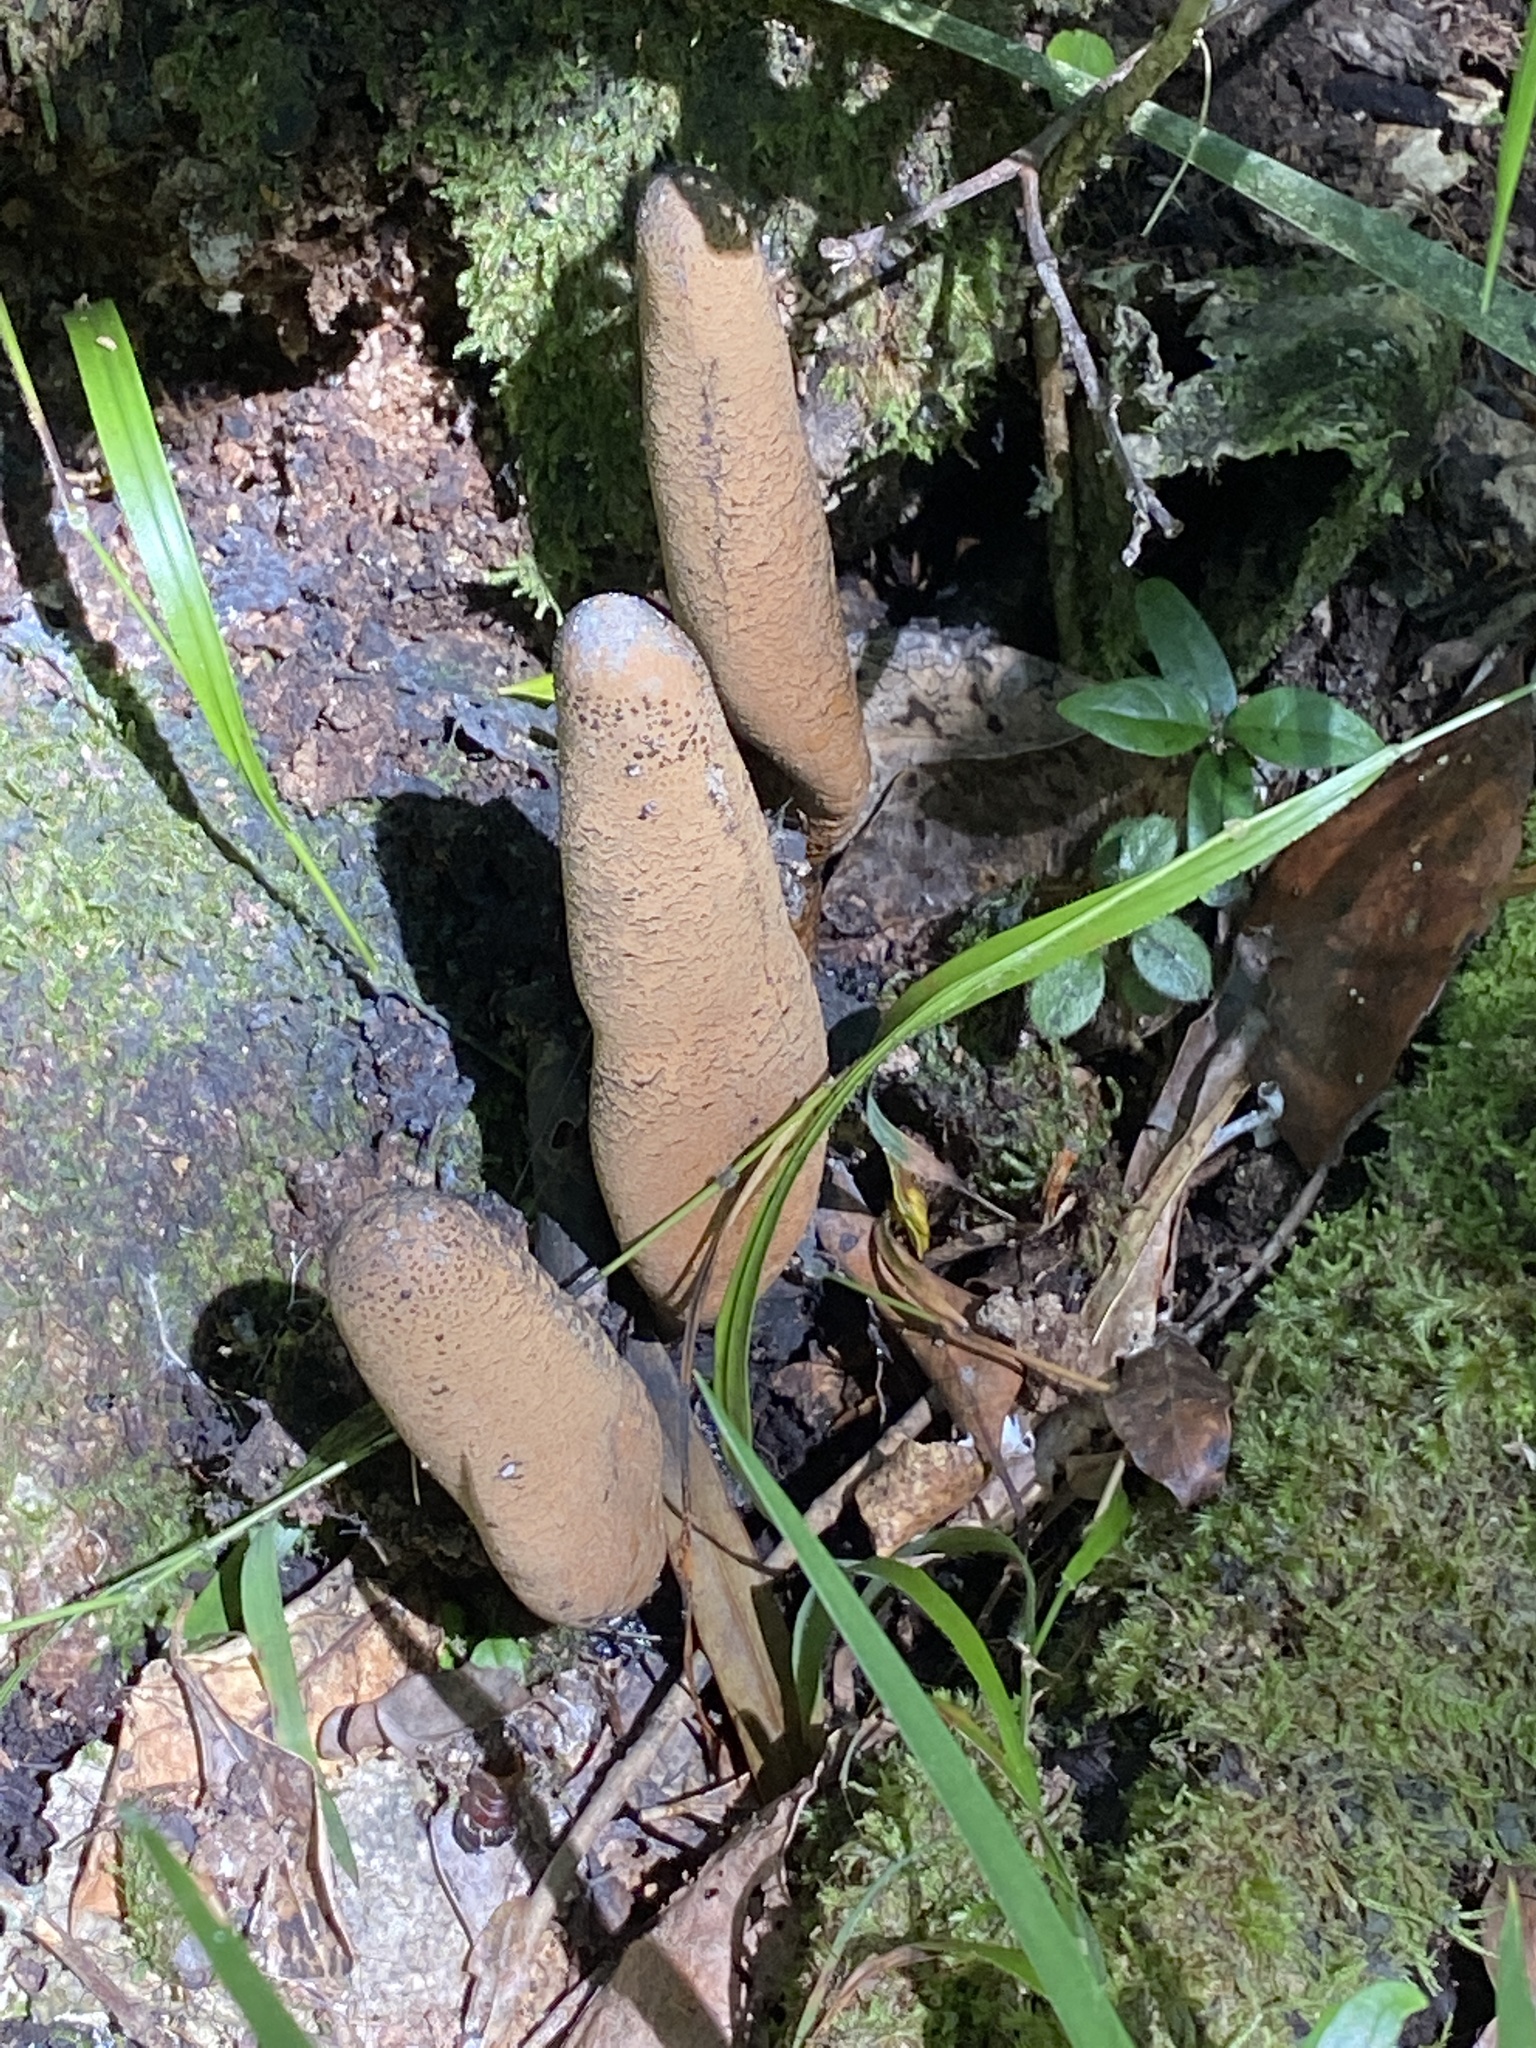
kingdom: Fungi
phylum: Ascomycota
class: Sordariomycetes
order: Xylariales
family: Xylariaceae
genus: Xylaria
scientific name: Xylaria telfairii
